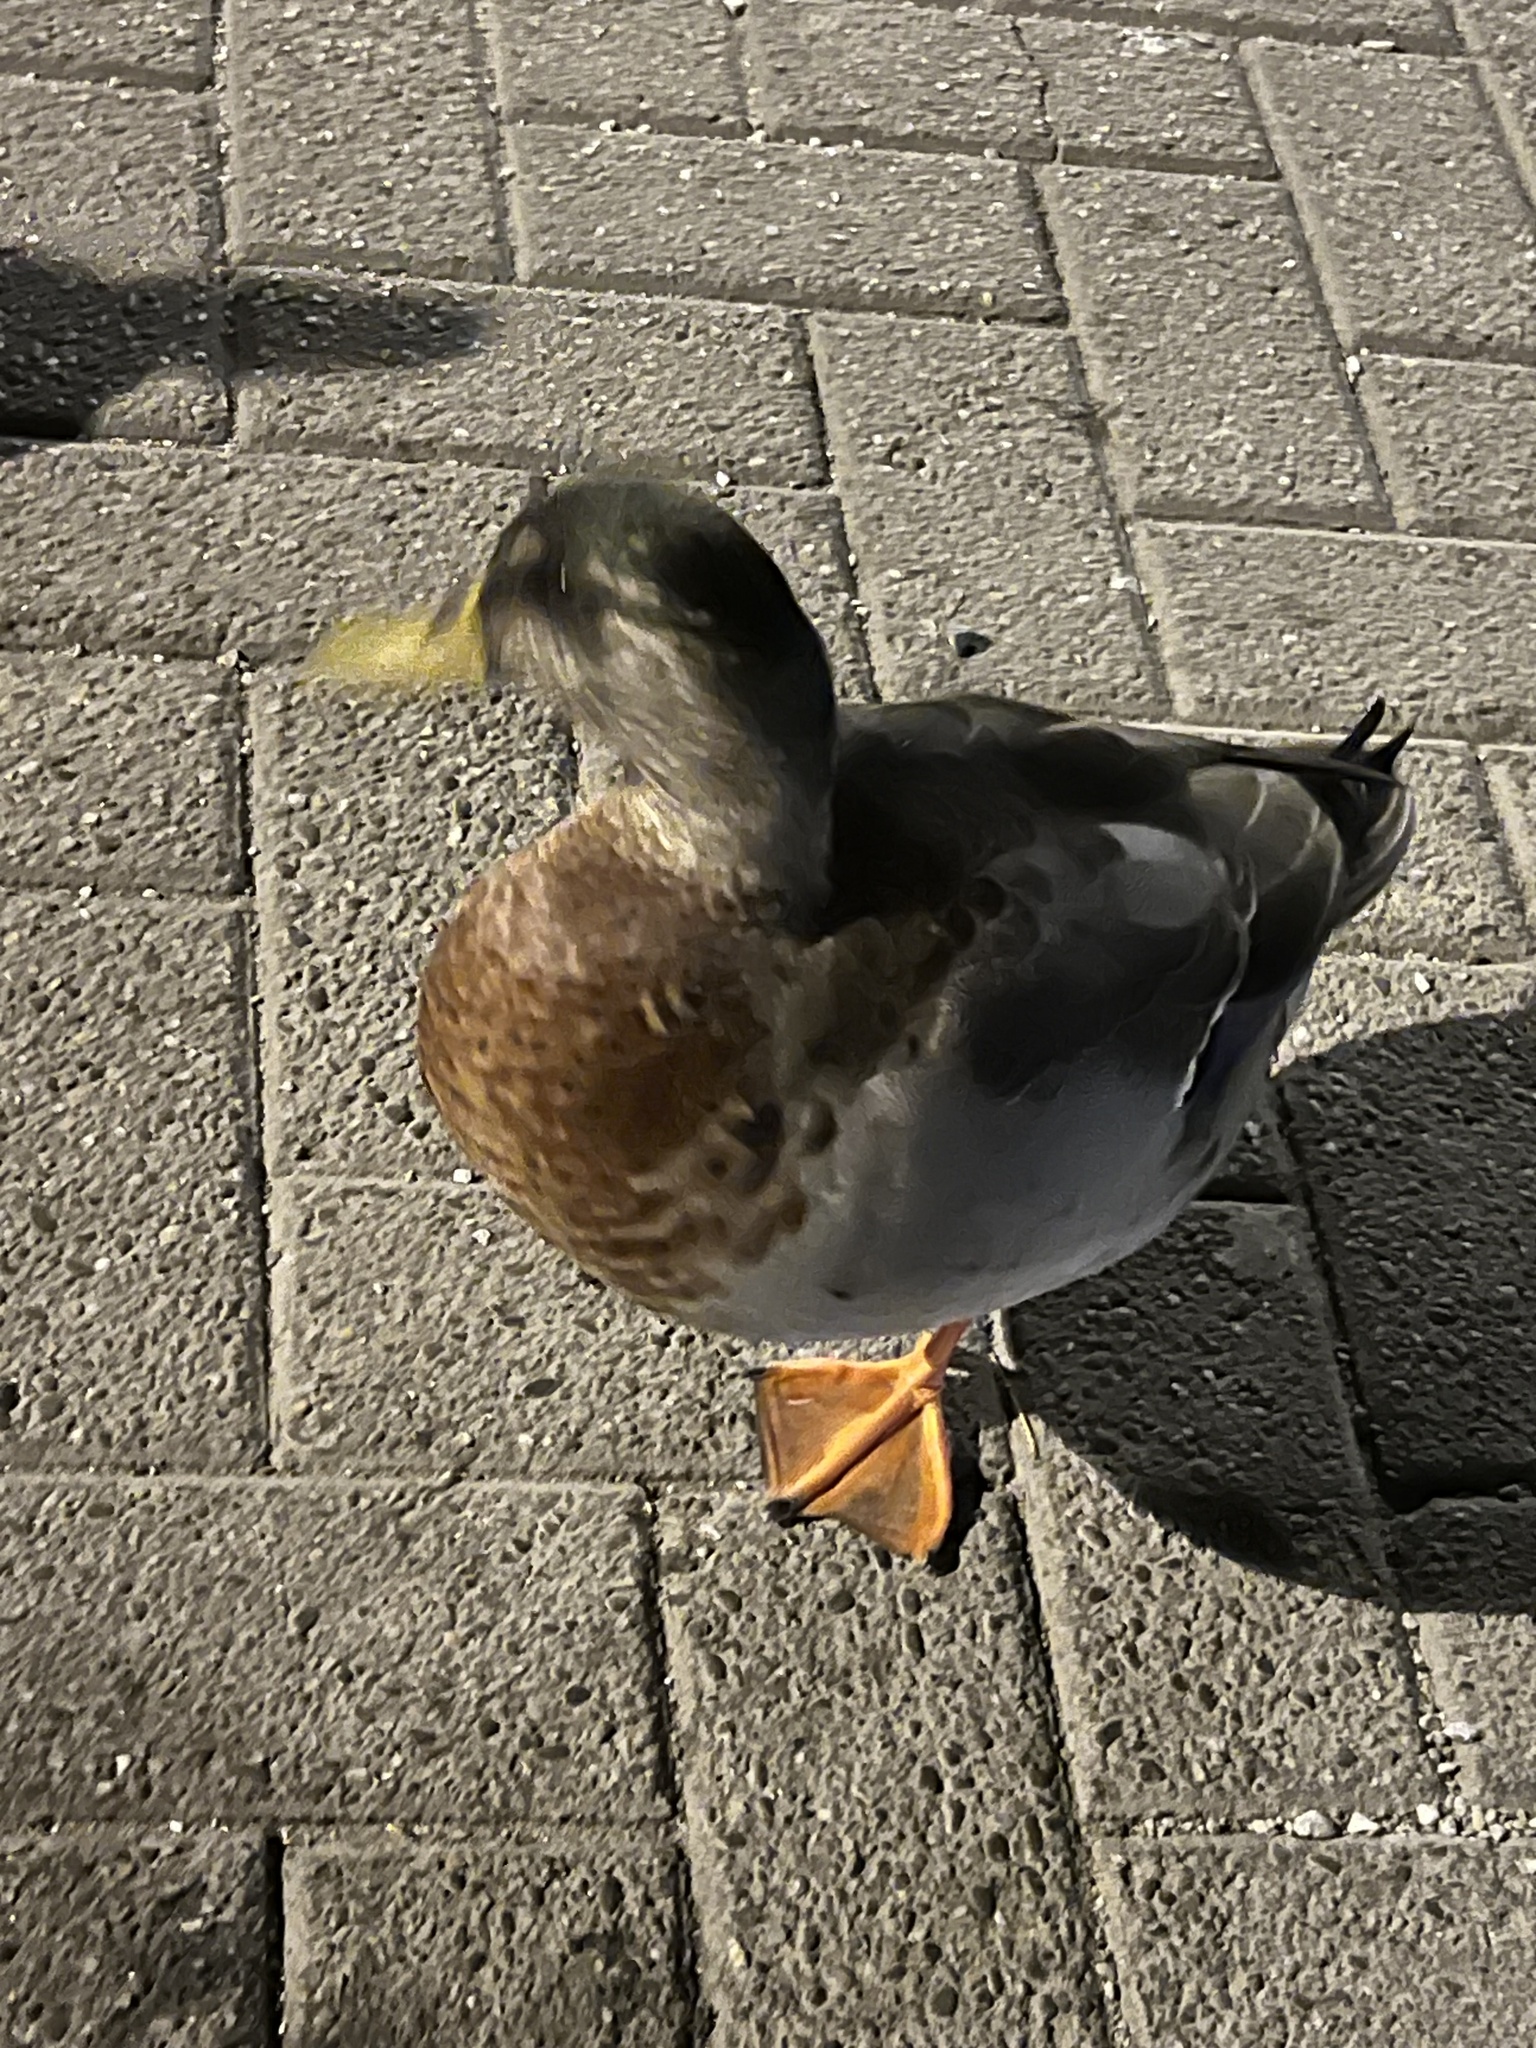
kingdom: Animalia
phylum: Chordata
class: Aves
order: Anseriformes
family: Anatidae
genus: Anas
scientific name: Anas platyrhynchos
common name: Mallard
